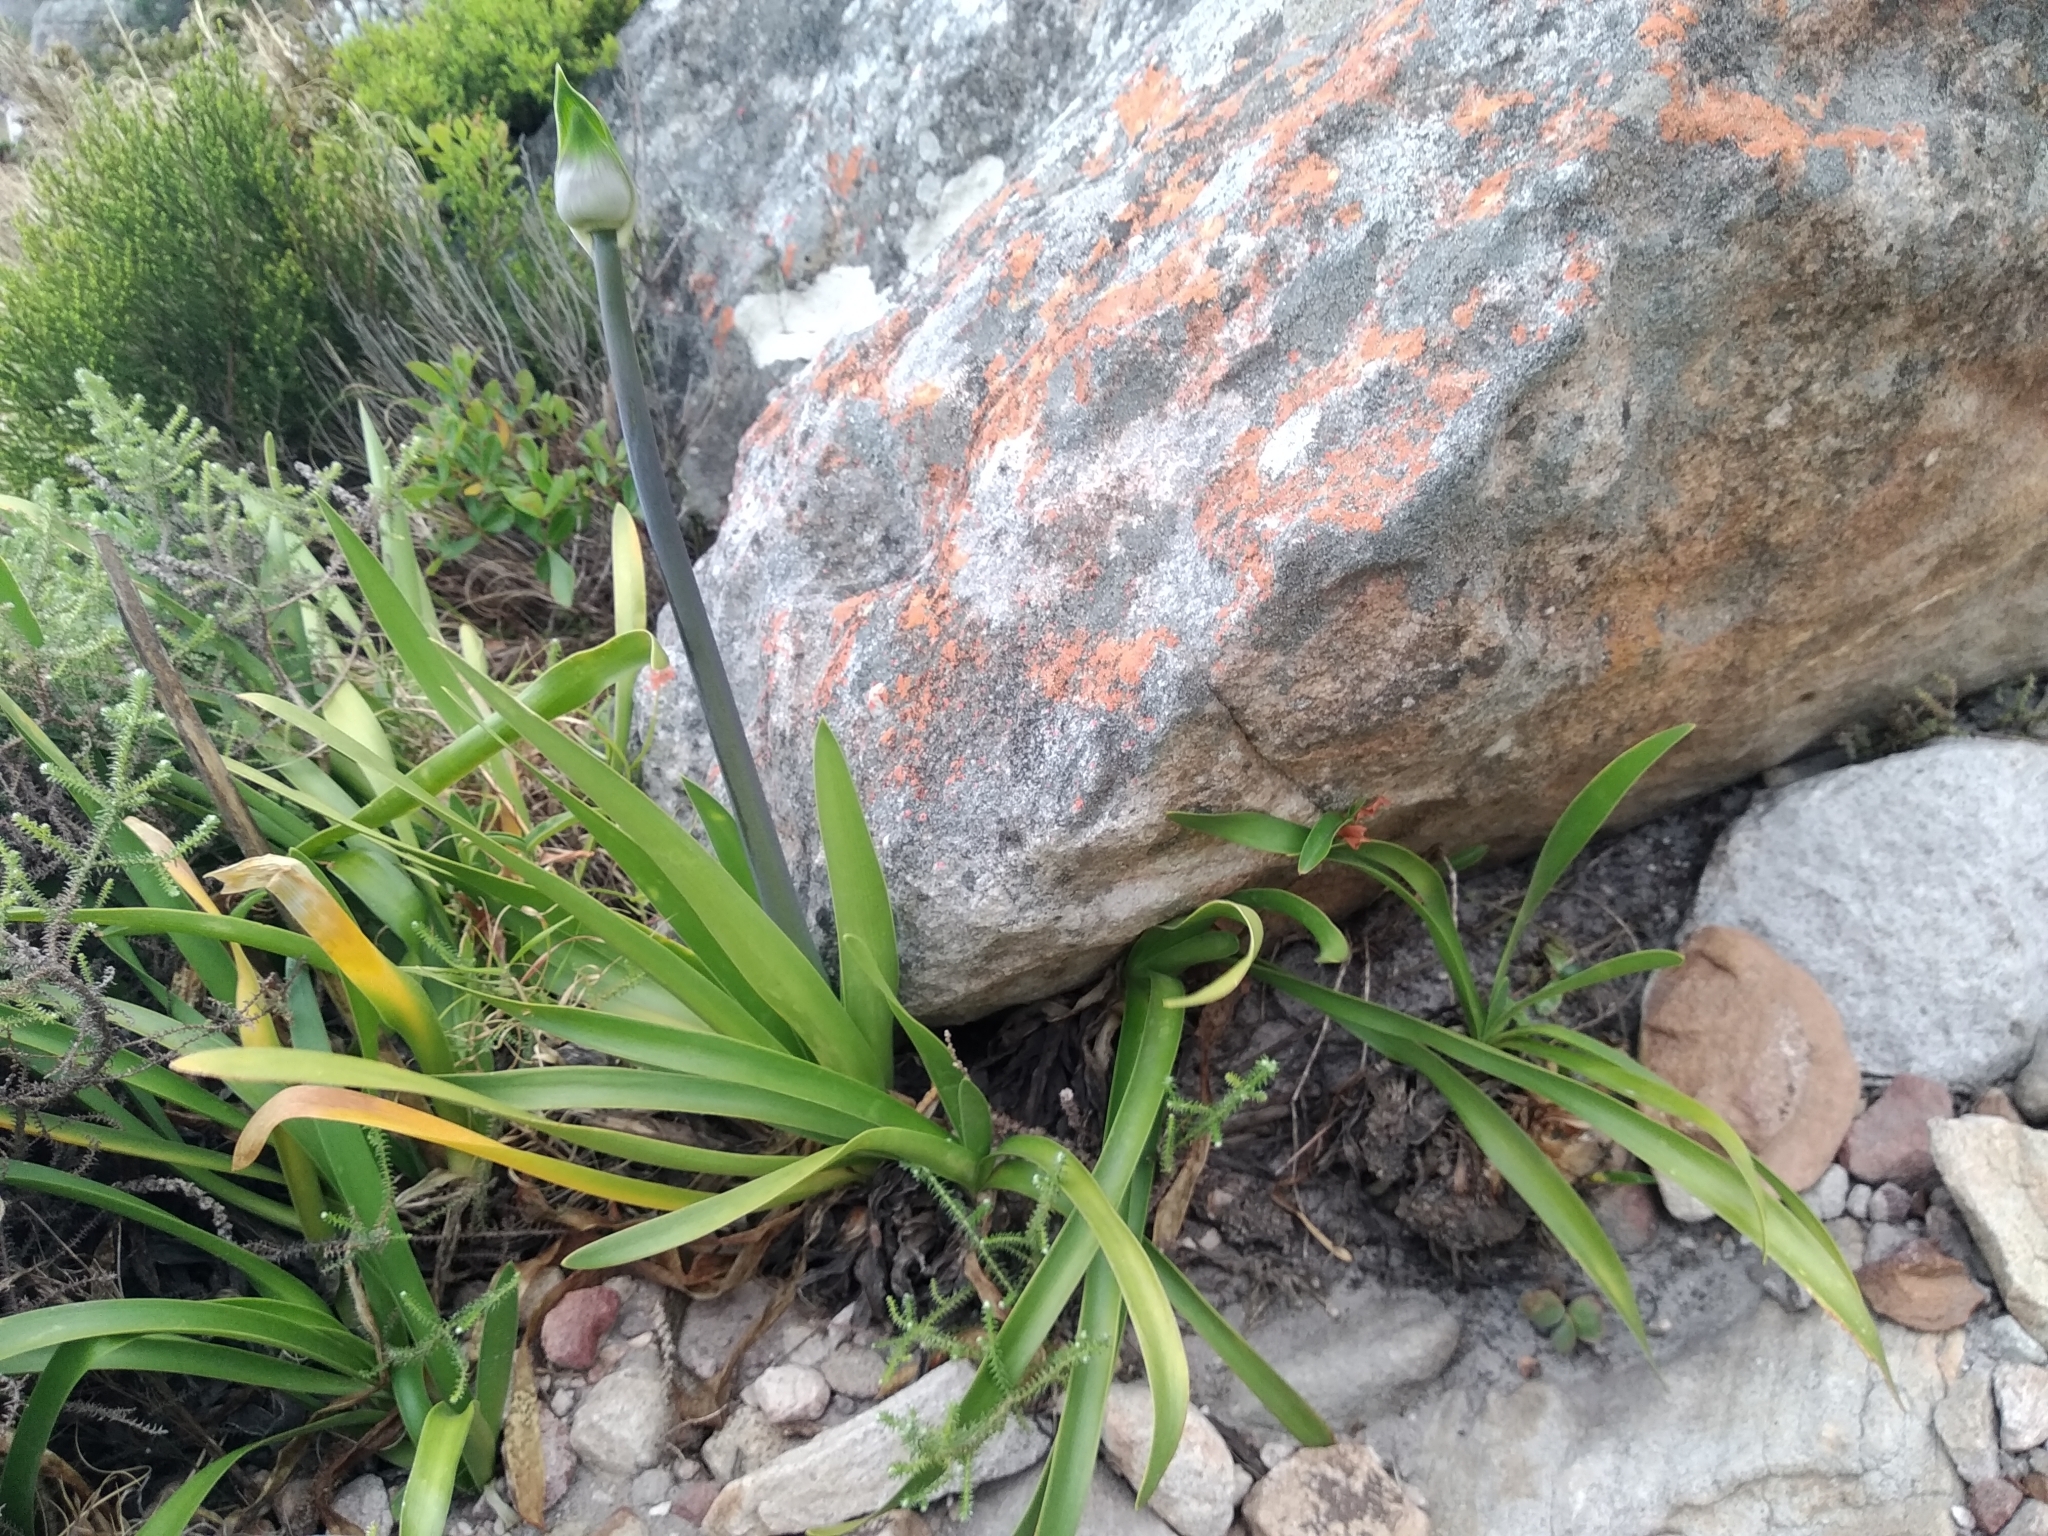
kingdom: Plantae
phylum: Tracheophyta
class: Liliopsida
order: Asparagales
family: Amaryllidaceae
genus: Agapanthus
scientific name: Agapanthus africanus
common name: Lily-of-the-nile
